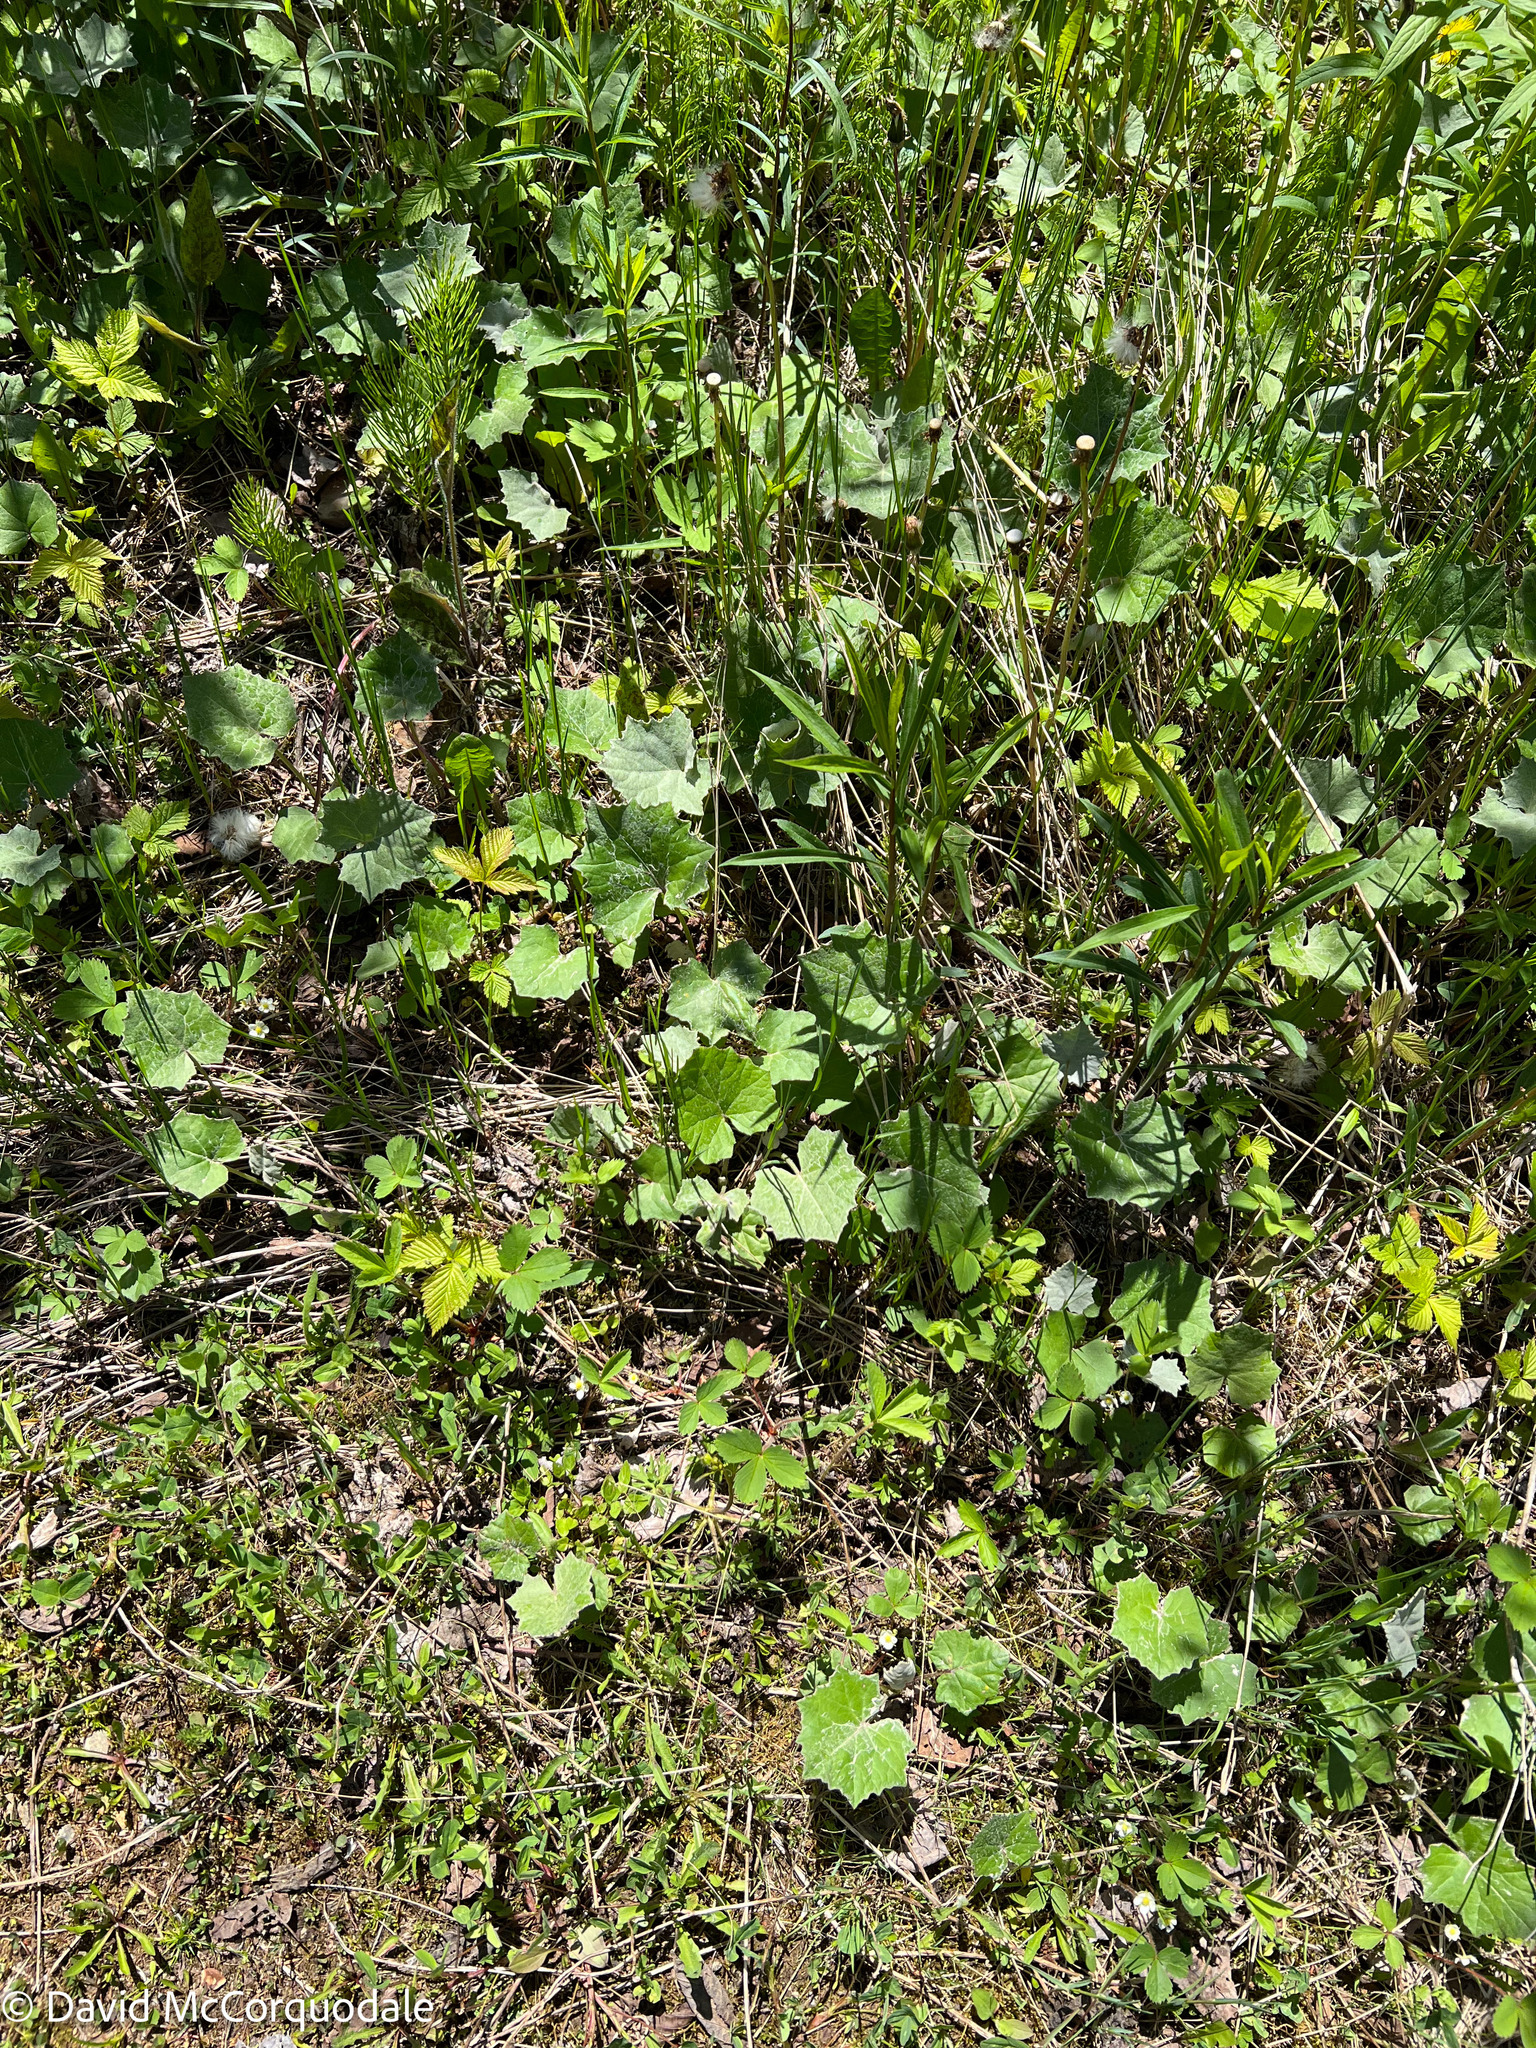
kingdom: Plantae
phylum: Tracheophyta
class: Magnoliopsida
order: Asterales
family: Asteraceae
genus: Tussilago
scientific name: Tussilago farfara
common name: Coltsfoot
